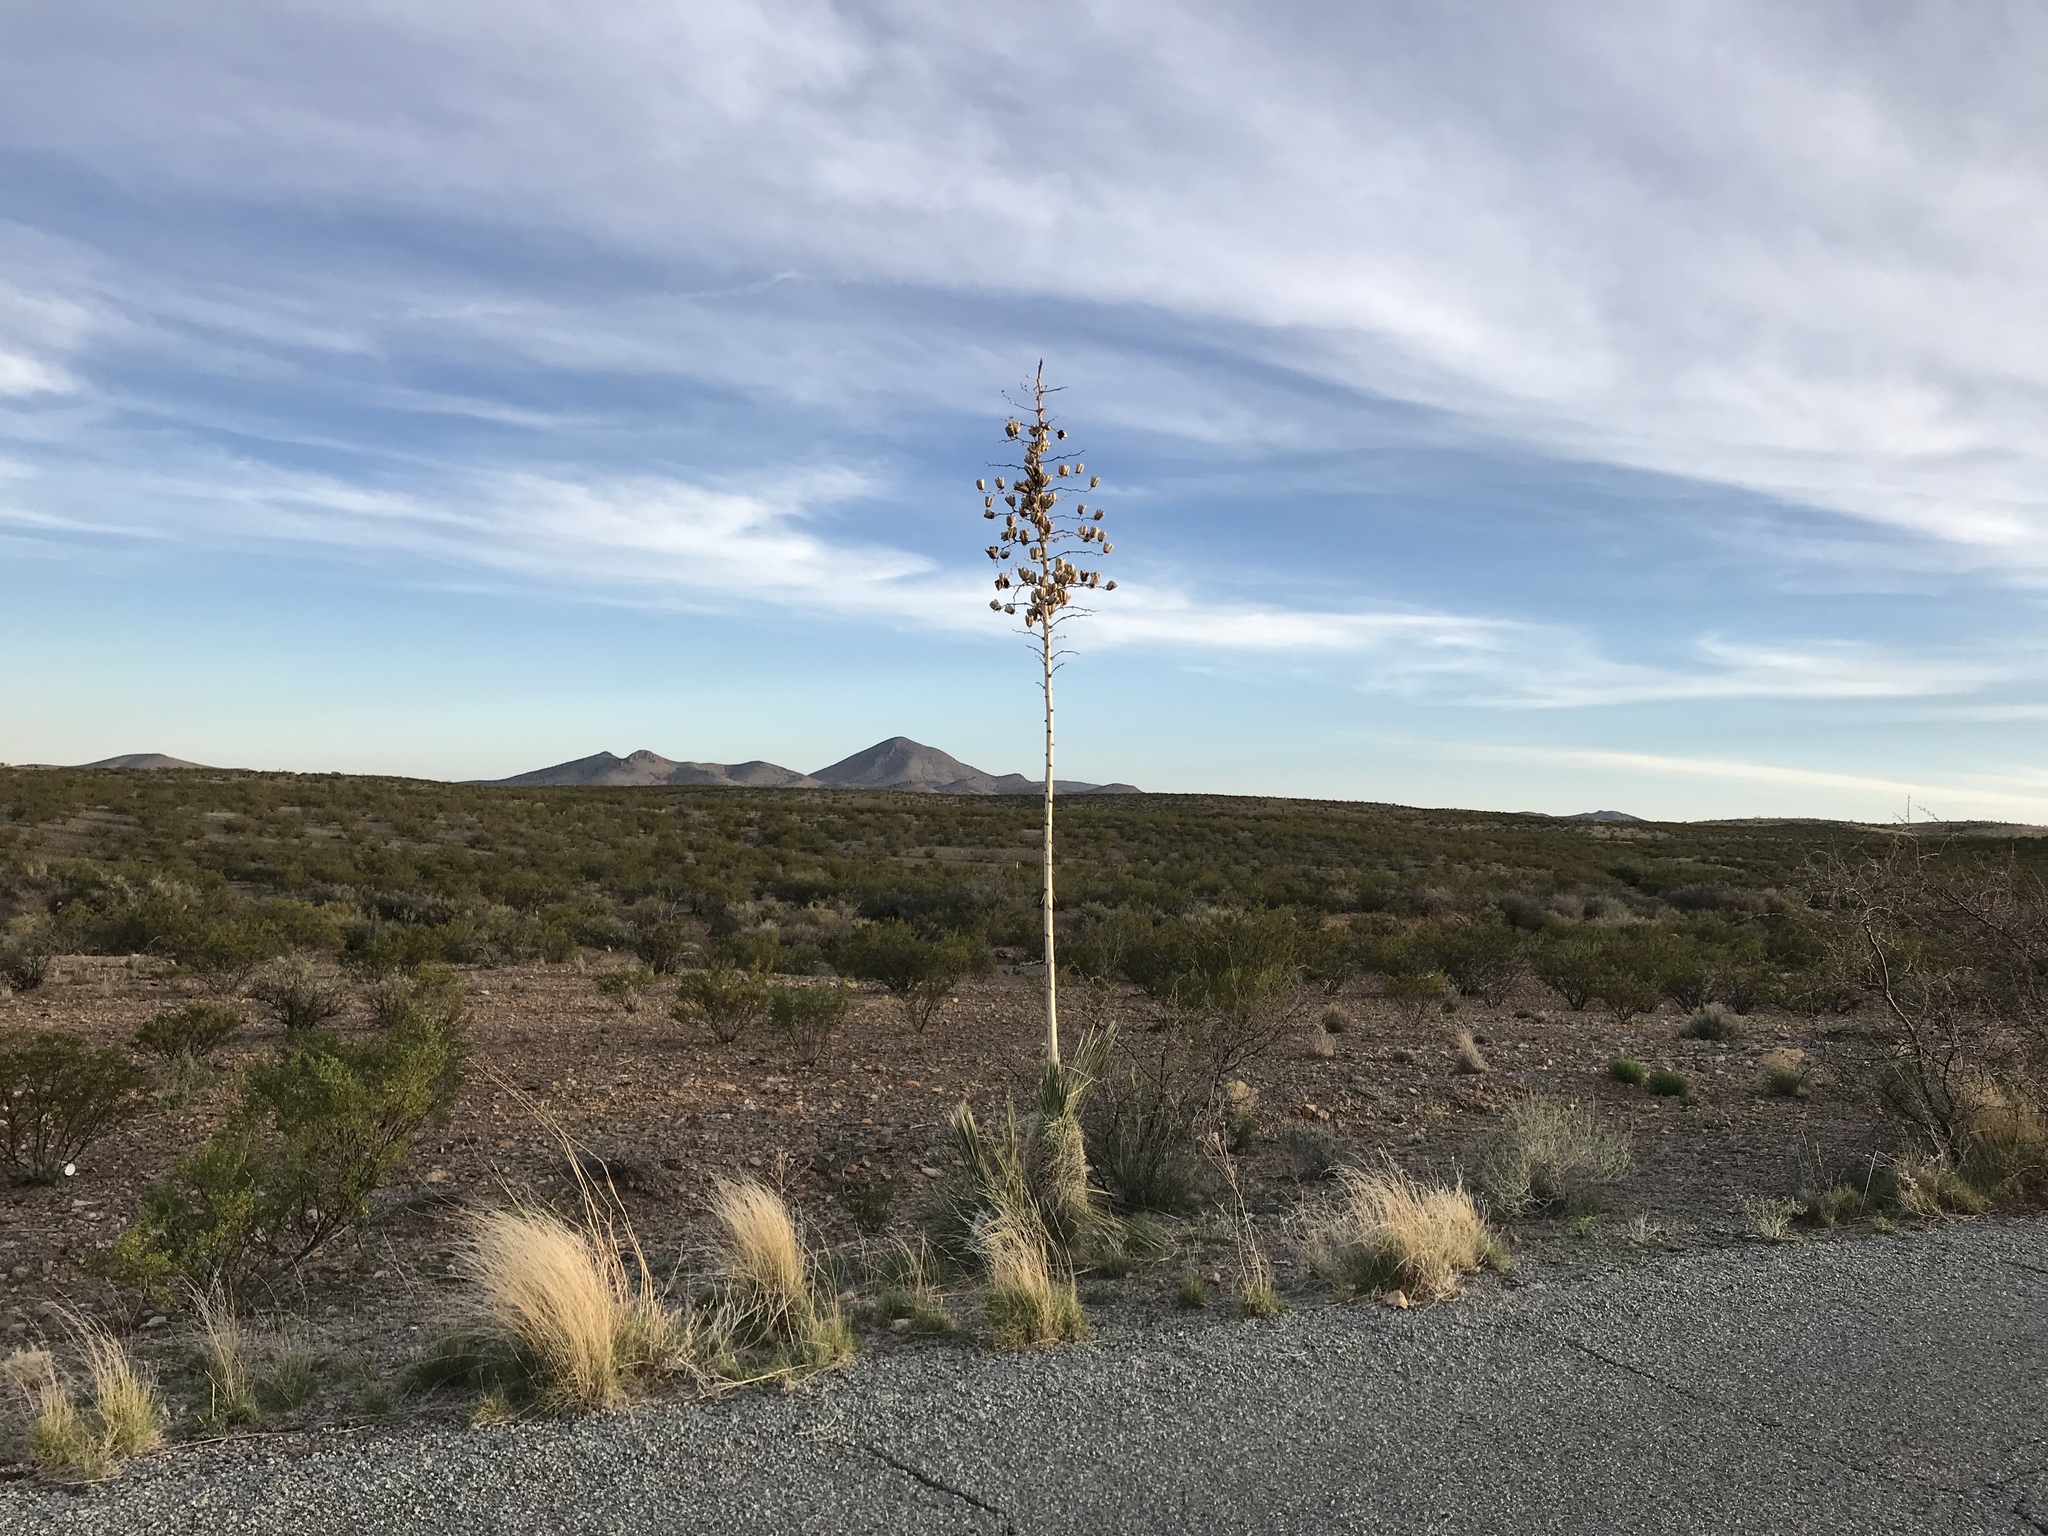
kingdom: Plantae
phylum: Tracheophyta
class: Liliopsida
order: Asparagales
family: Asparagaceae
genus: Yucca
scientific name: Yucca elata
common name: Palmella
